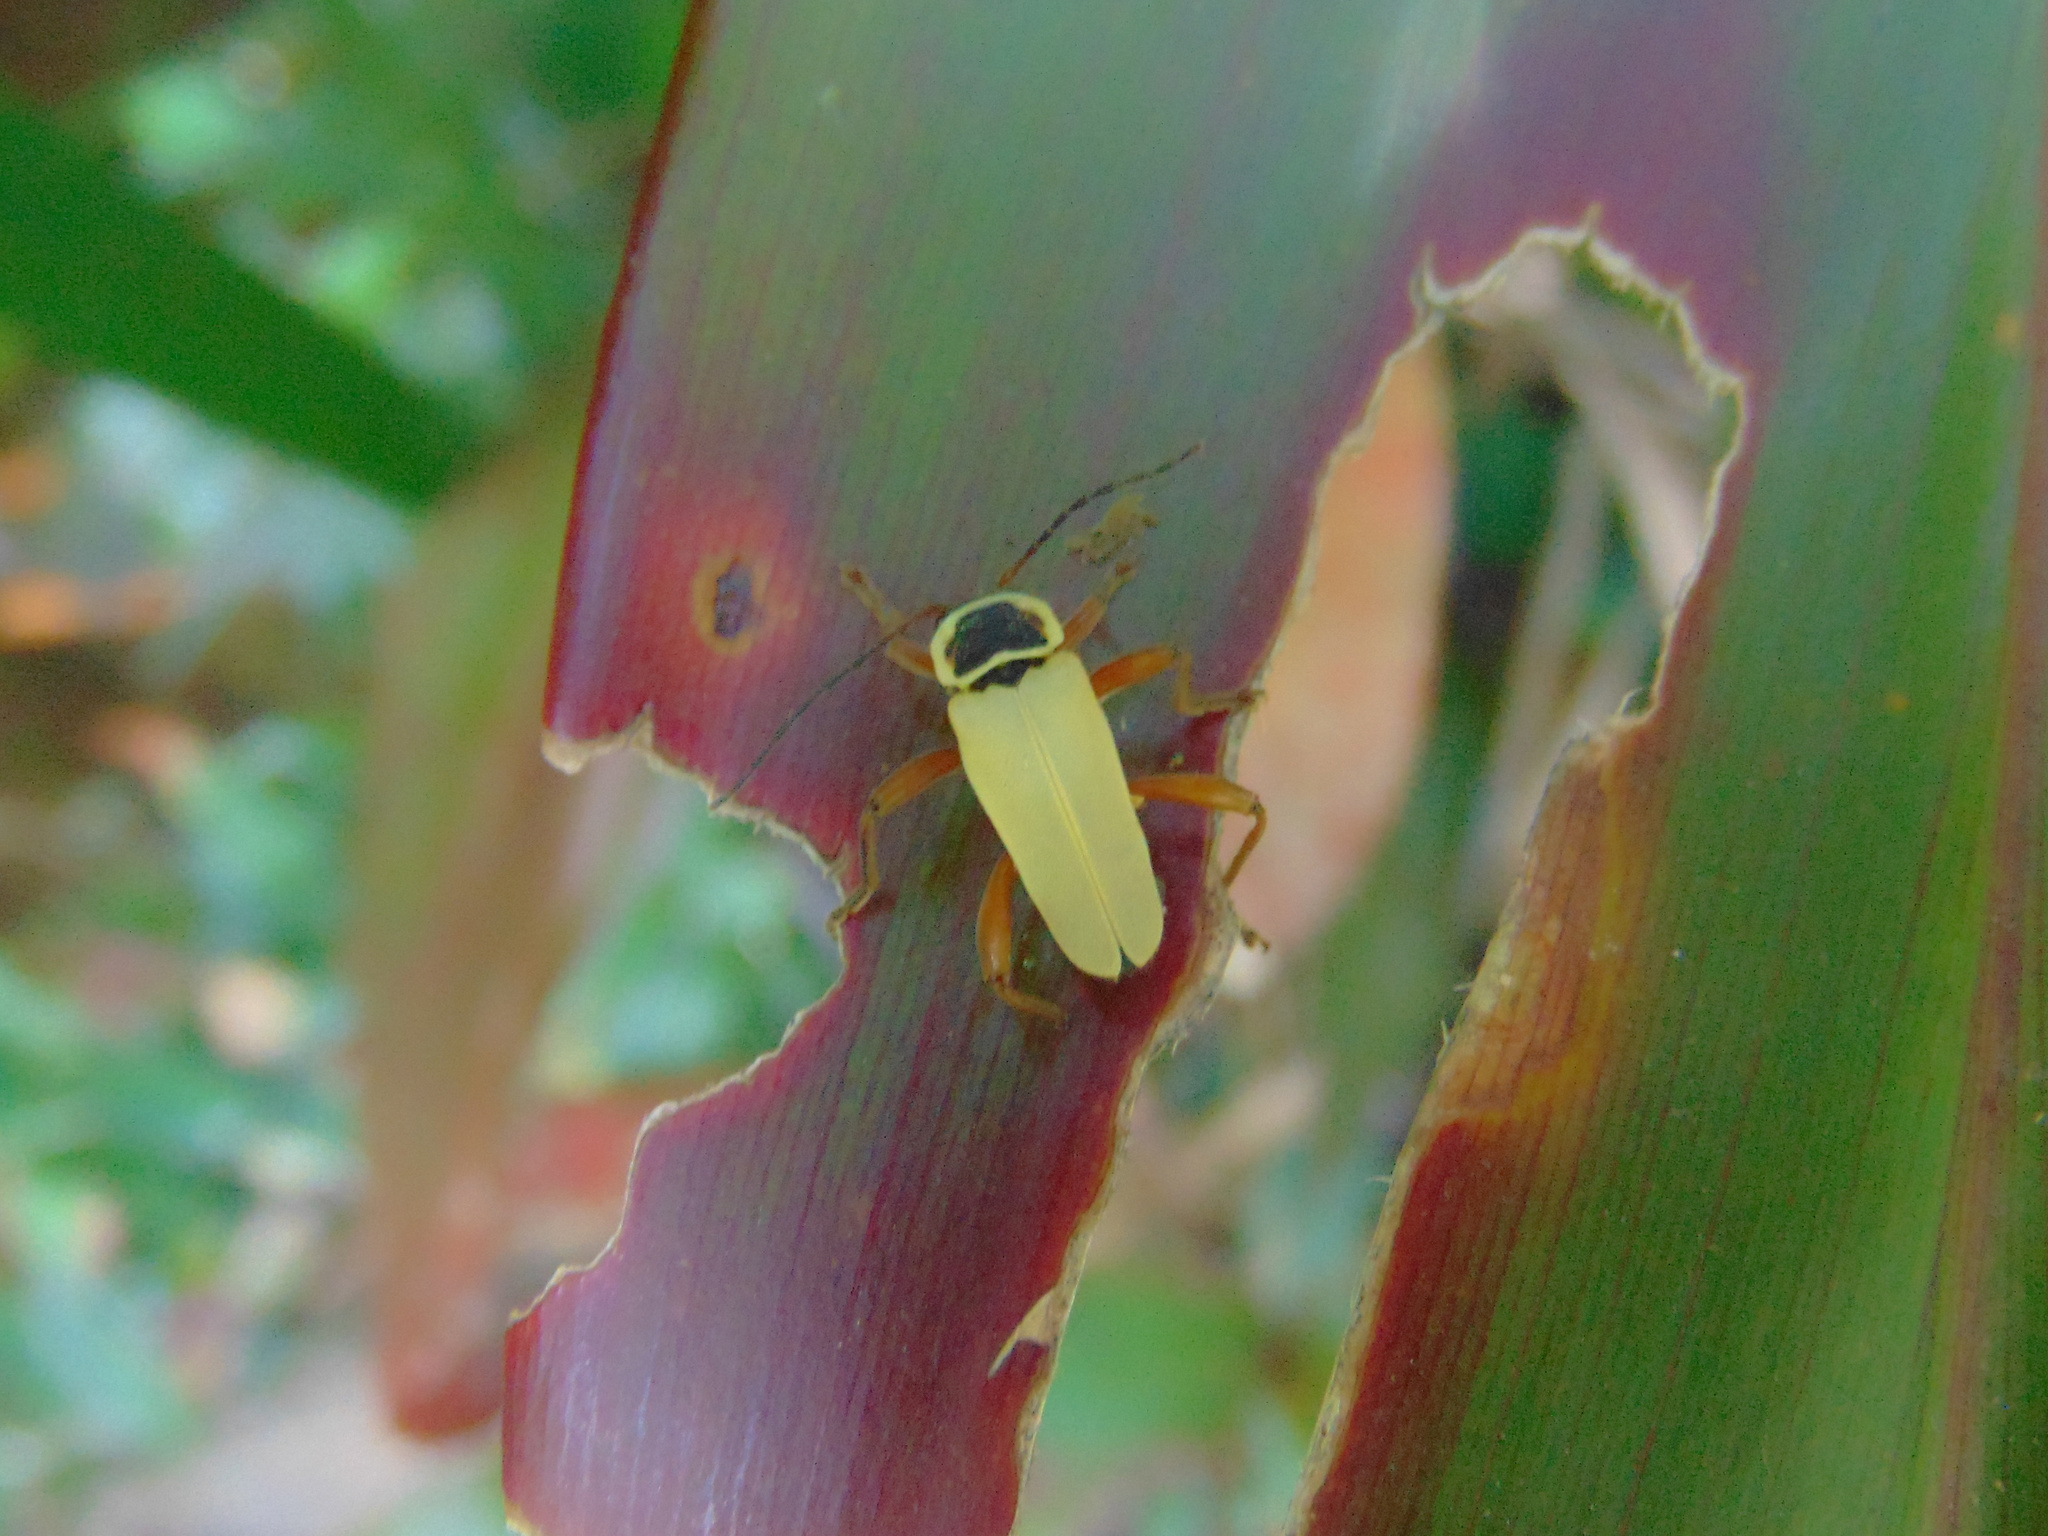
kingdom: Animalia
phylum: Arthropoda
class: Insecta
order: Coleoptera
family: Cantharidae
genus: Chauliognathus
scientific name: Chauliognathus
